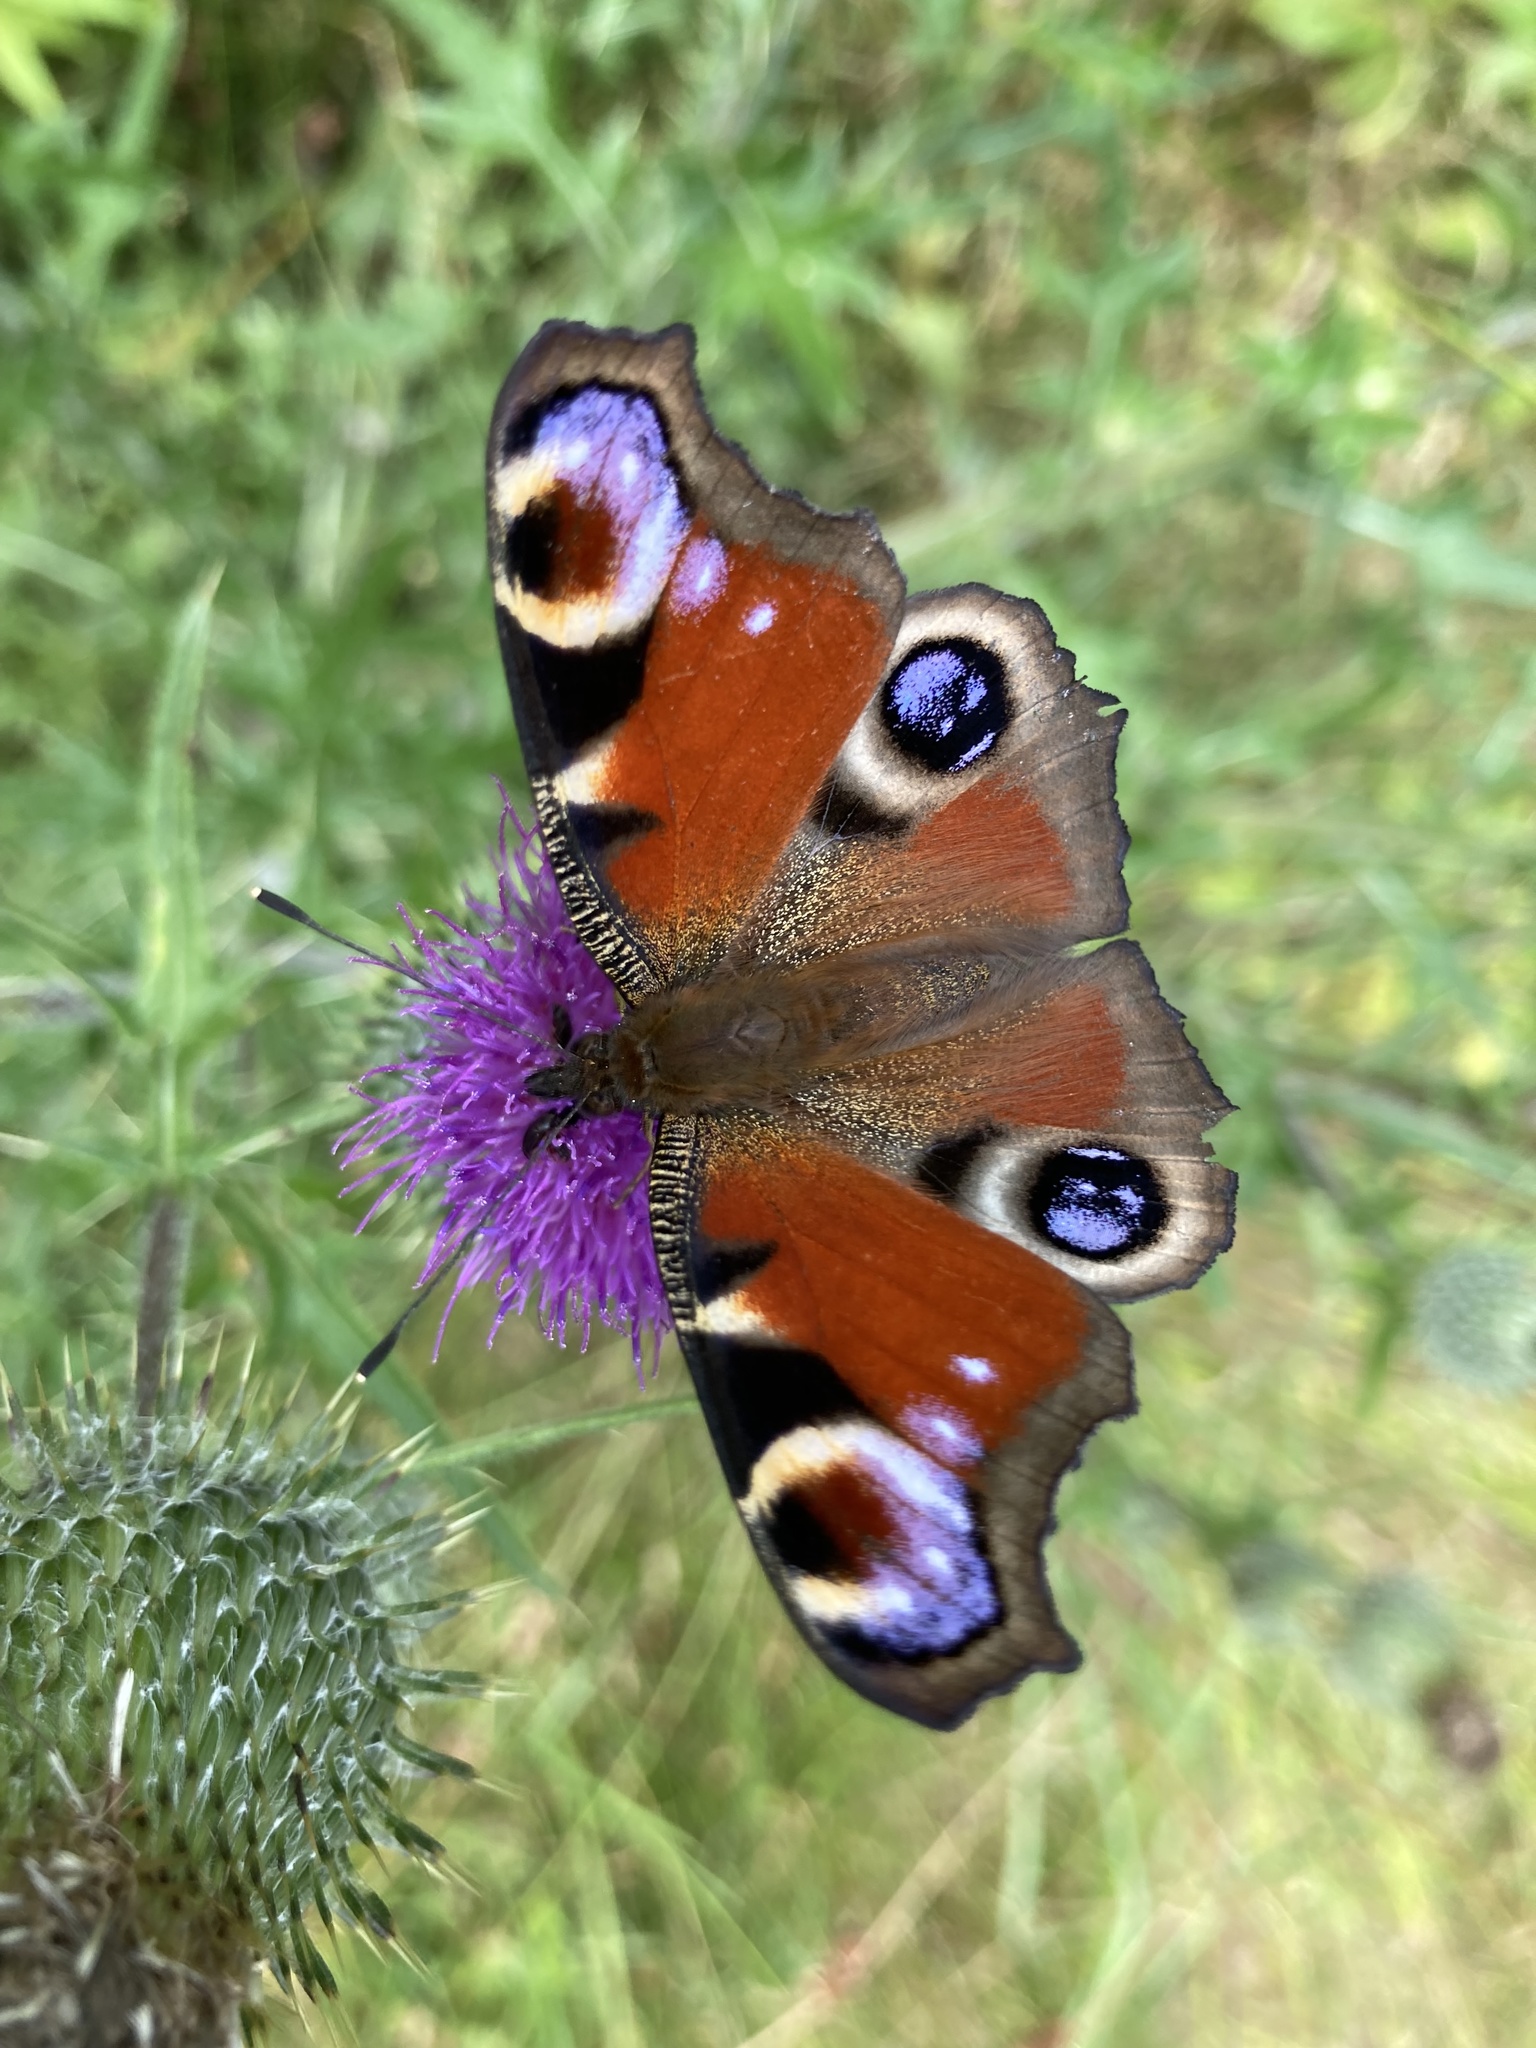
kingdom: Animalia
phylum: Arthropoda
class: Insecta
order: Lepidoptera
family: Nymphalidae
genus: Aglais
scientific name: Aglais io
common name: Peacock
